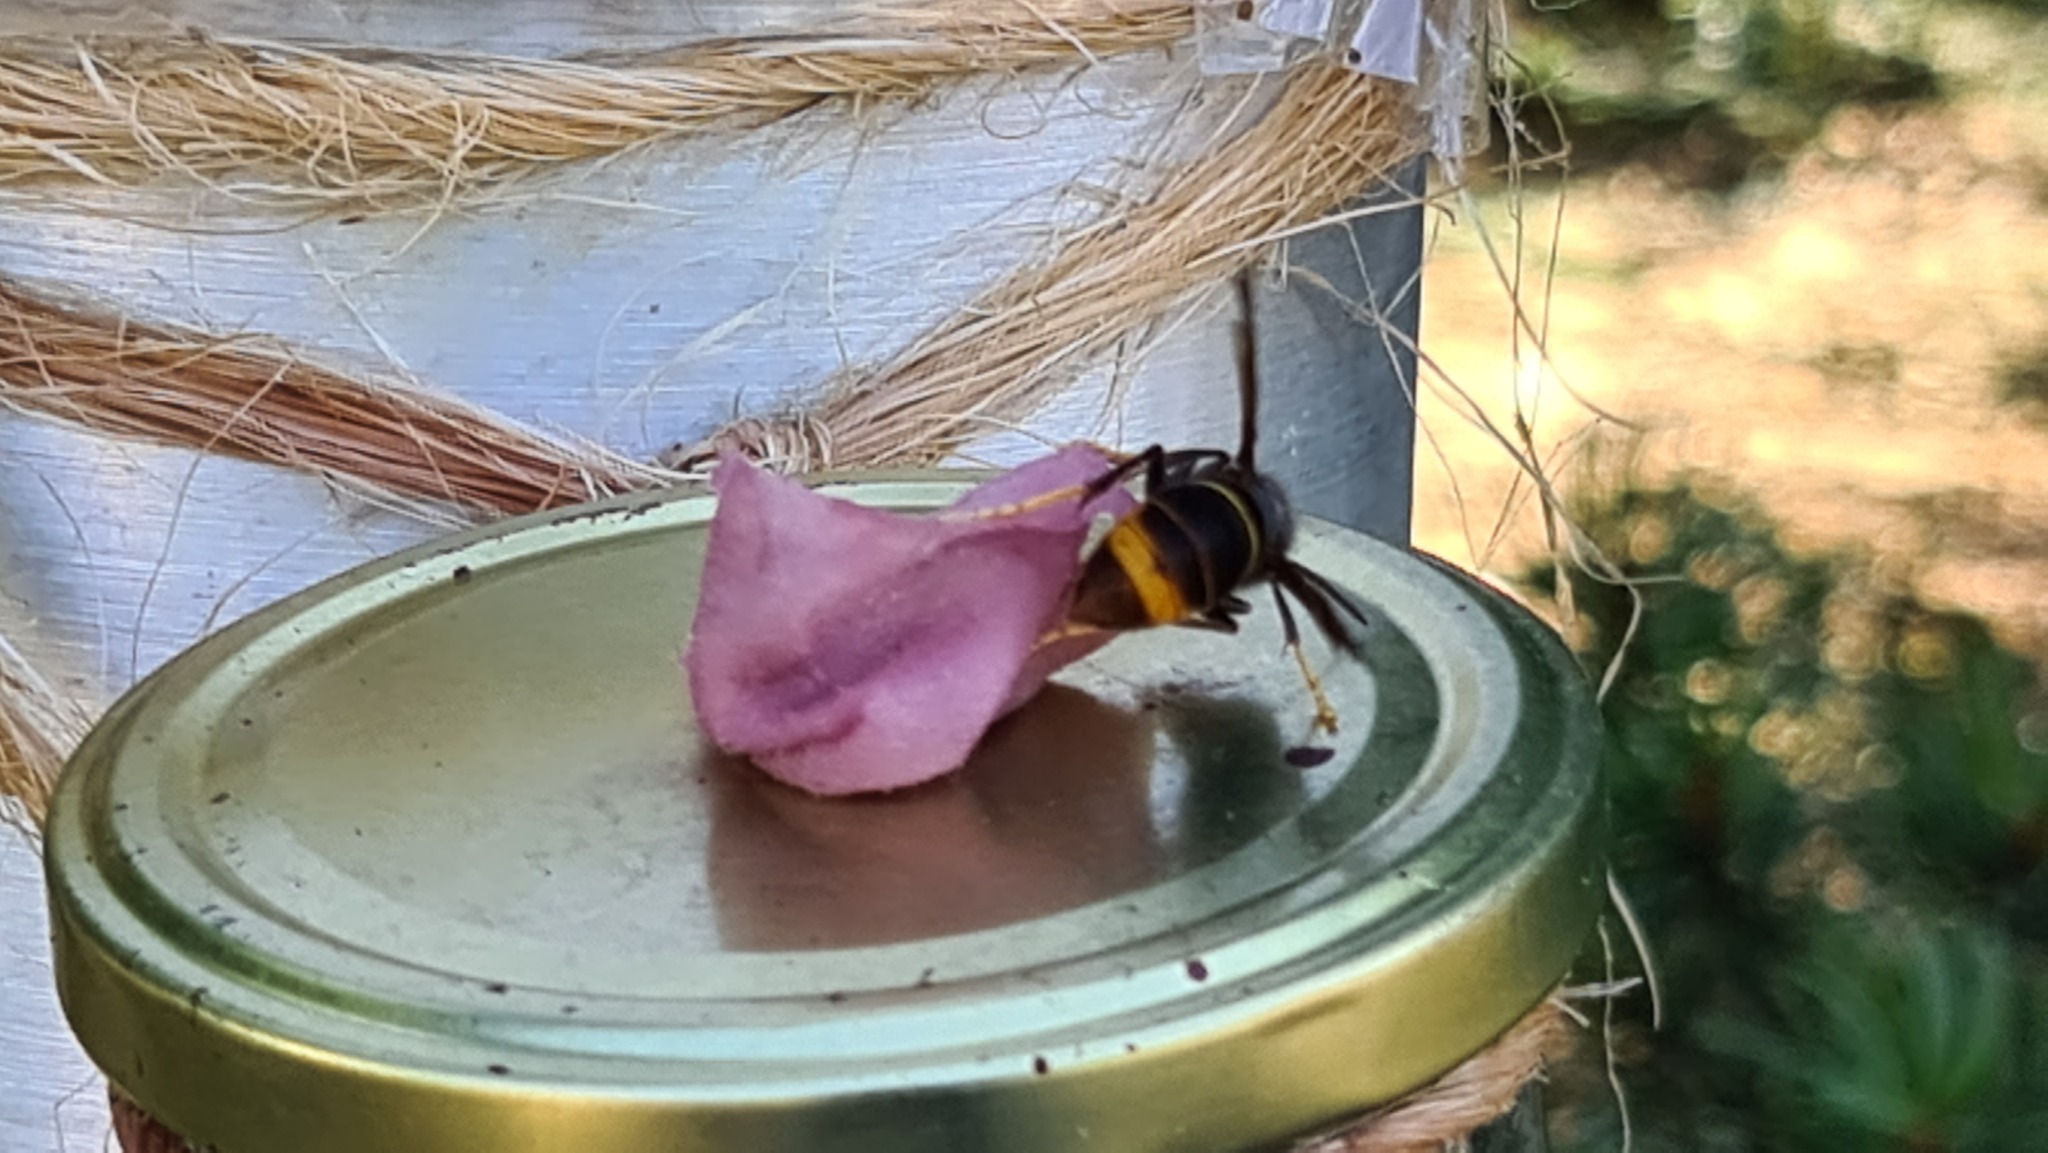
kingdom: Animalia
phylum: Arthropoda
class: Insecta
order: Hymenoptera
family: Vespidae
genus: Vespa
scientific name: Vespa velutina
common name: Asian hornet
